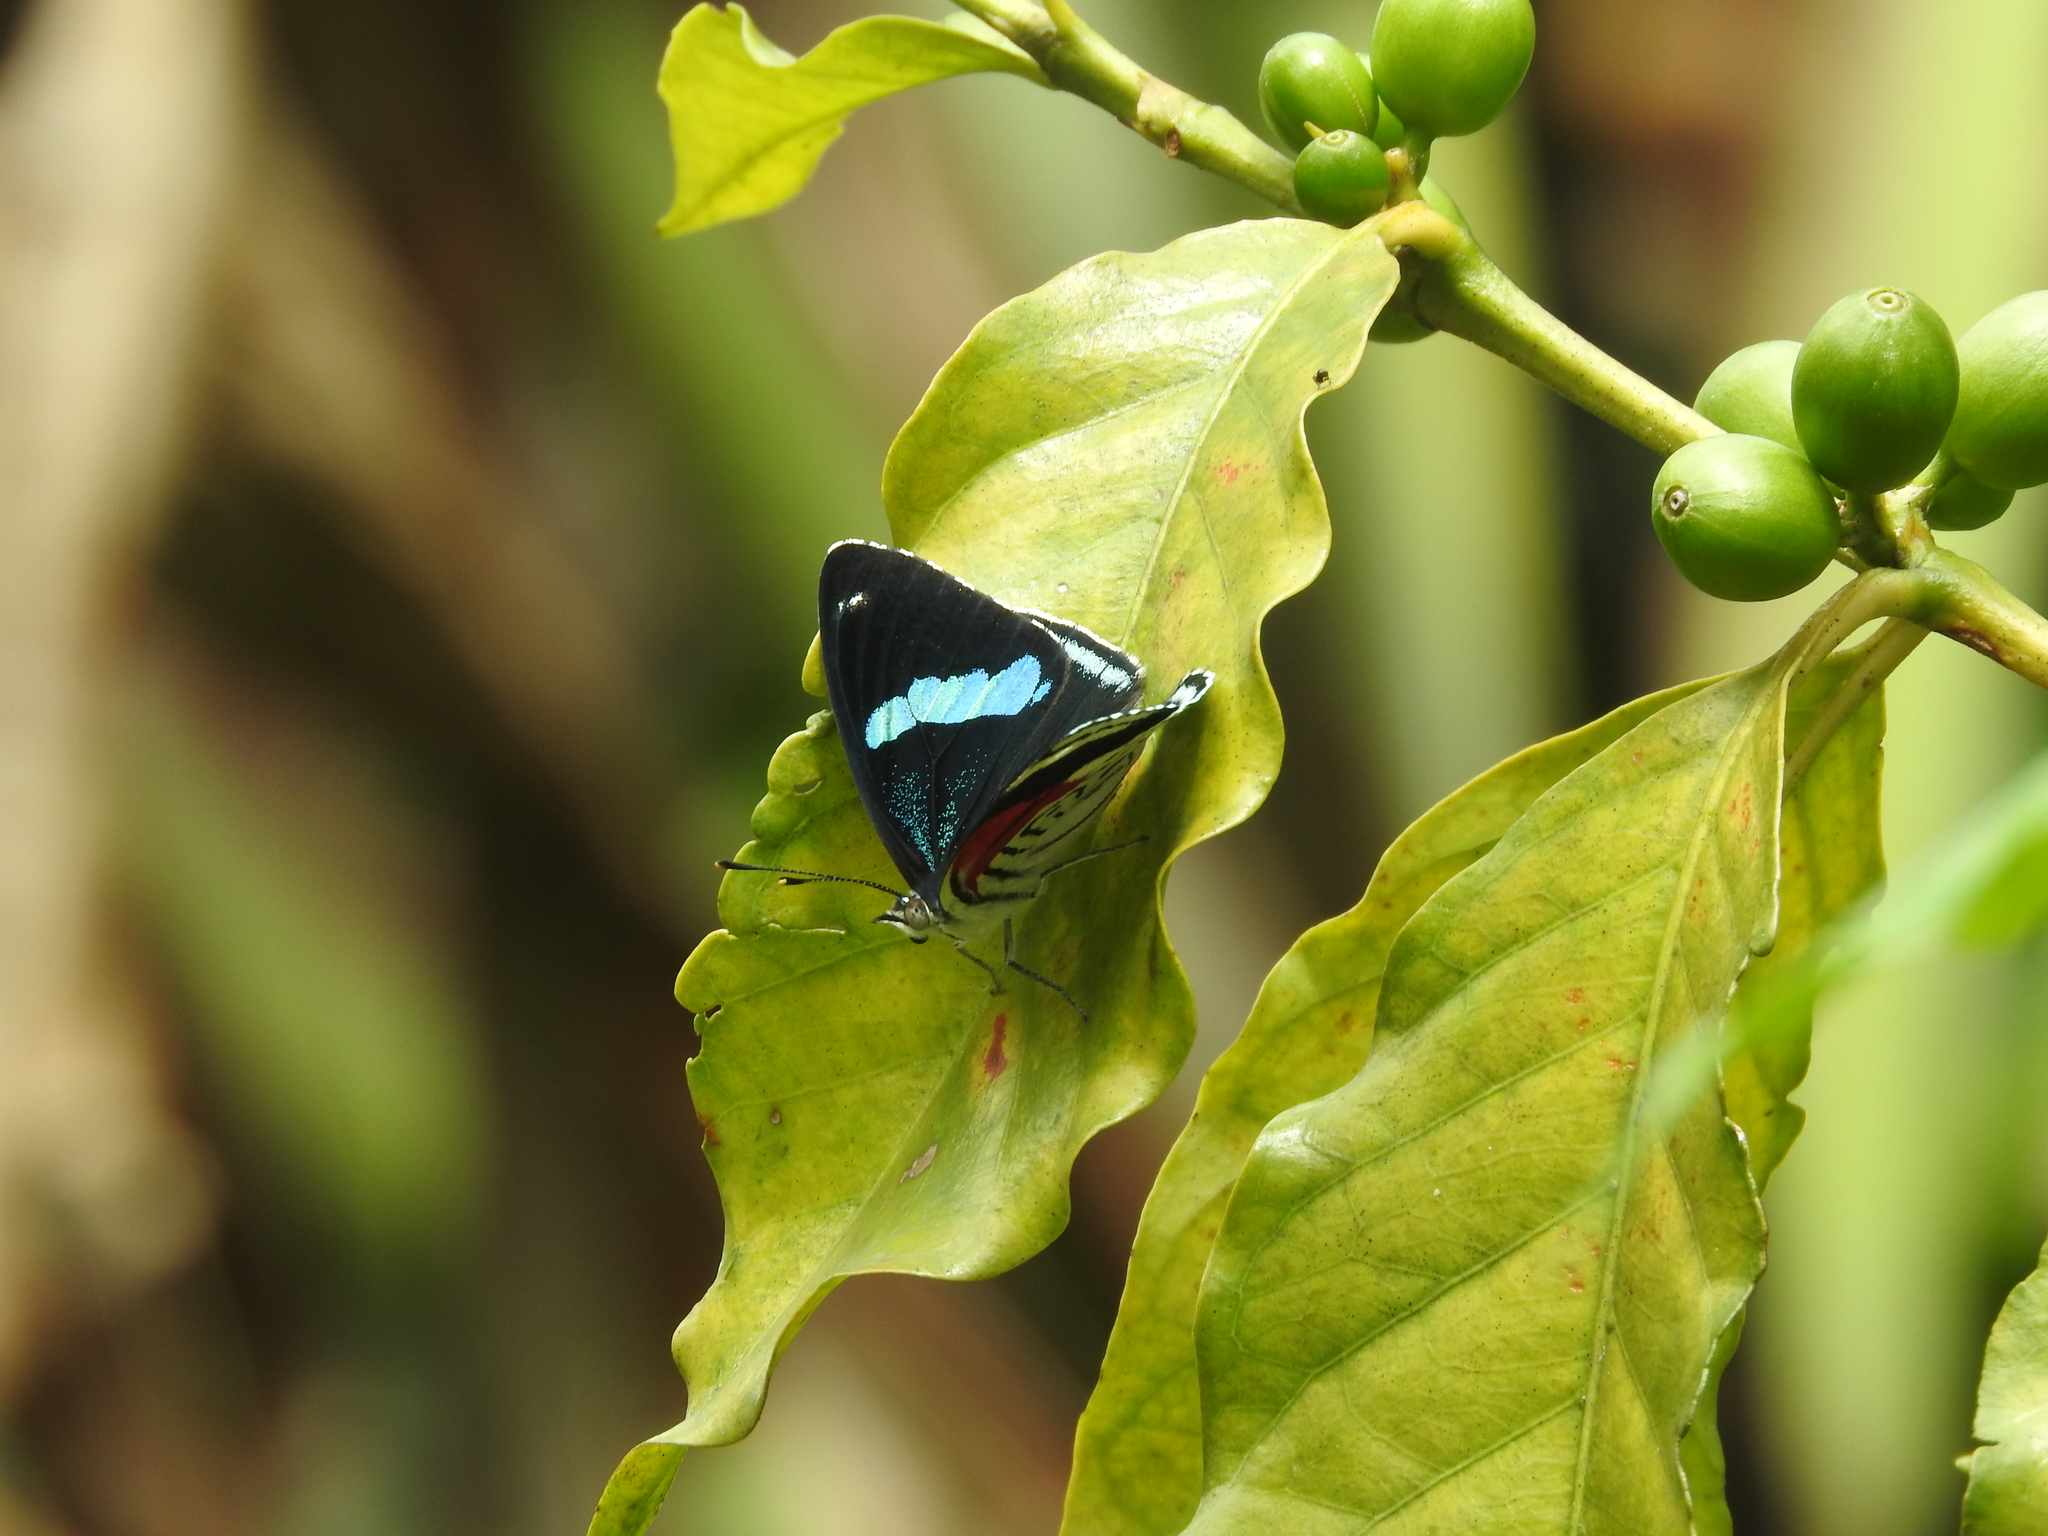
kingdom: Animalia
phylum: Arthropoda
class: Insecta
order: Lepidoptera
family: Nymphalidae
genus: Diaethria
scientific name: Diaethria anna
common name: Anna’s eighty-eight
